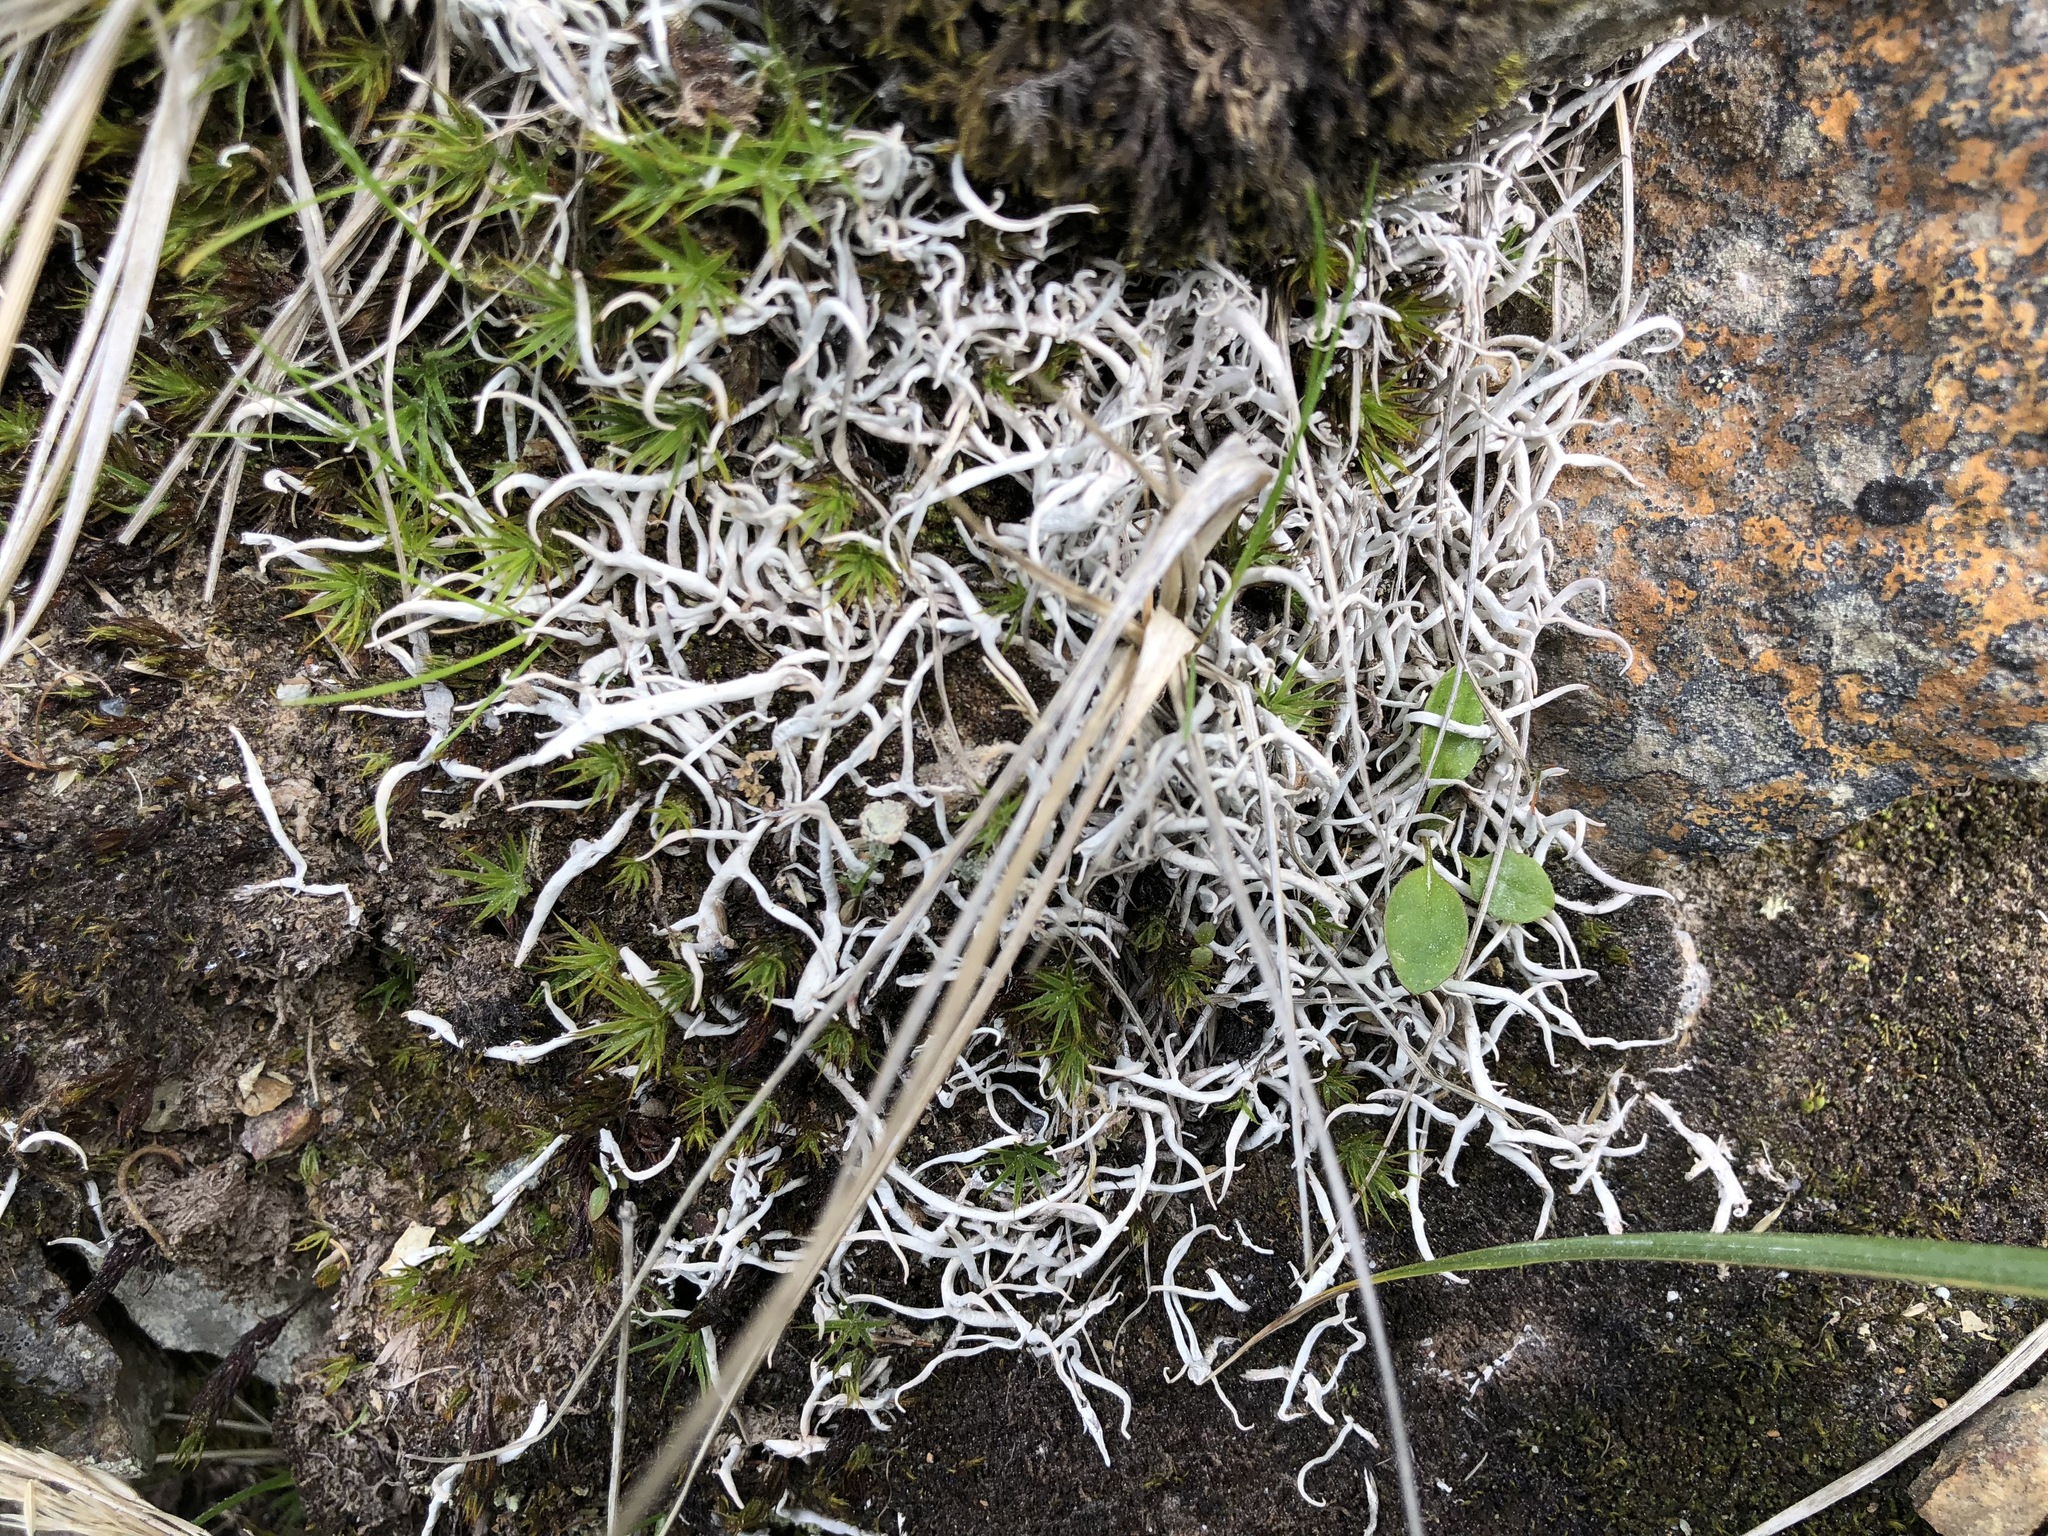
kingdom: Fungi
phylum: Ascomycota
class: Lecanoromycetes
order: Pertusariales
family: Icmadophilaceae
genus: Thamnolia
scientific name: Thamnolia vermicularis
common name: Whiteworm lichen
